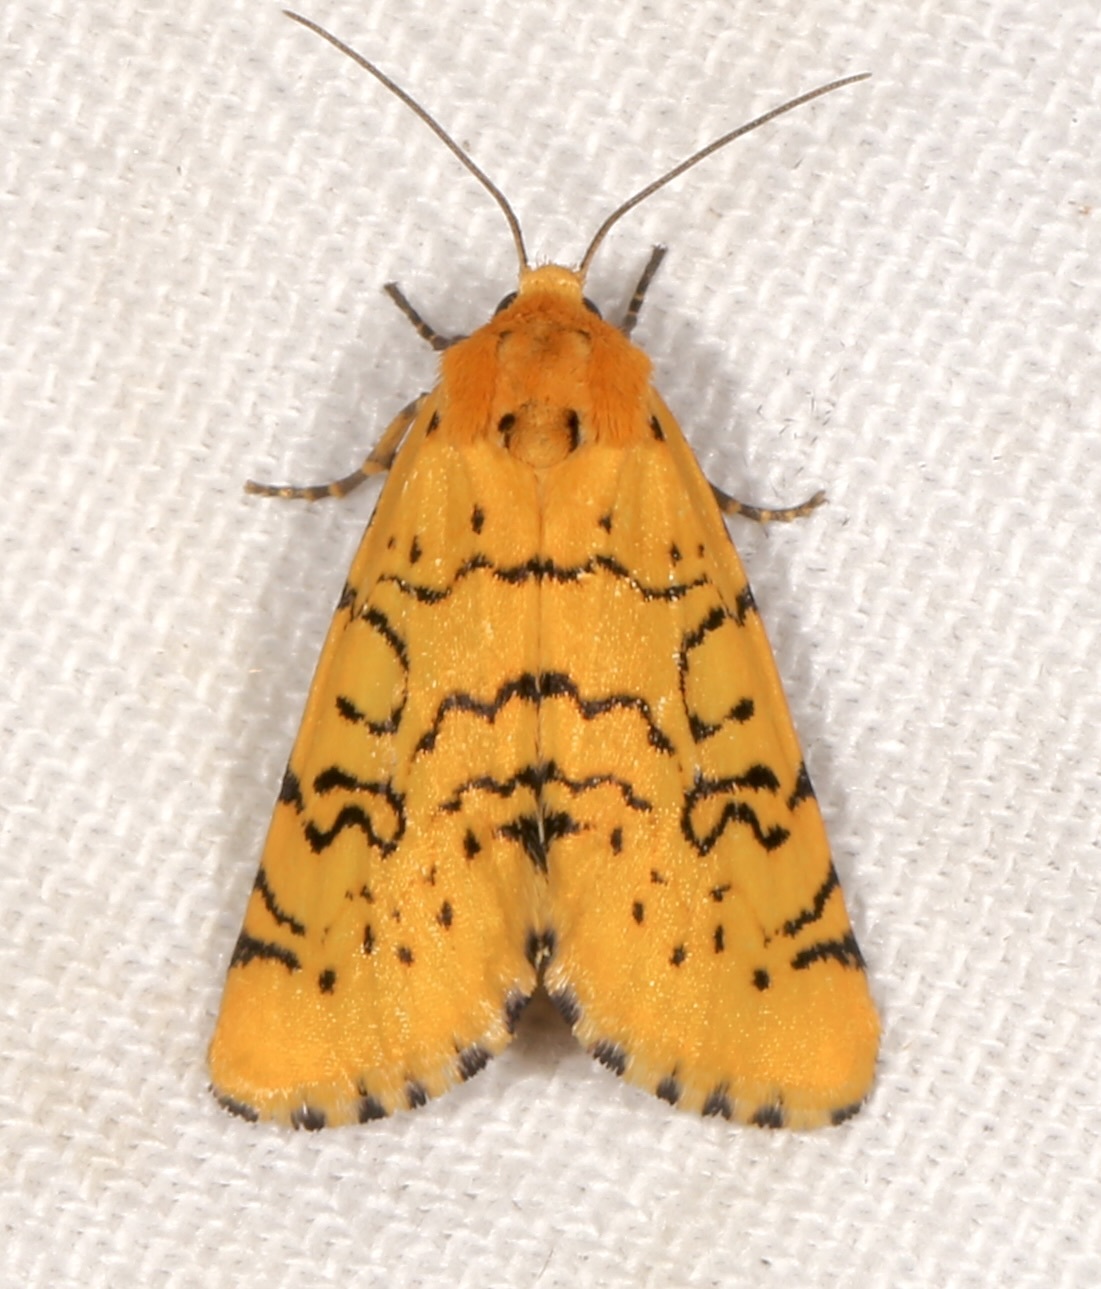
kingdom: Animalia
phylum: Arthropoda
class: Insecta
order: Lepidoptera
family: Noctuidae
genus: Chrysoecia
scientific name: Chrysoecia atrolinea
